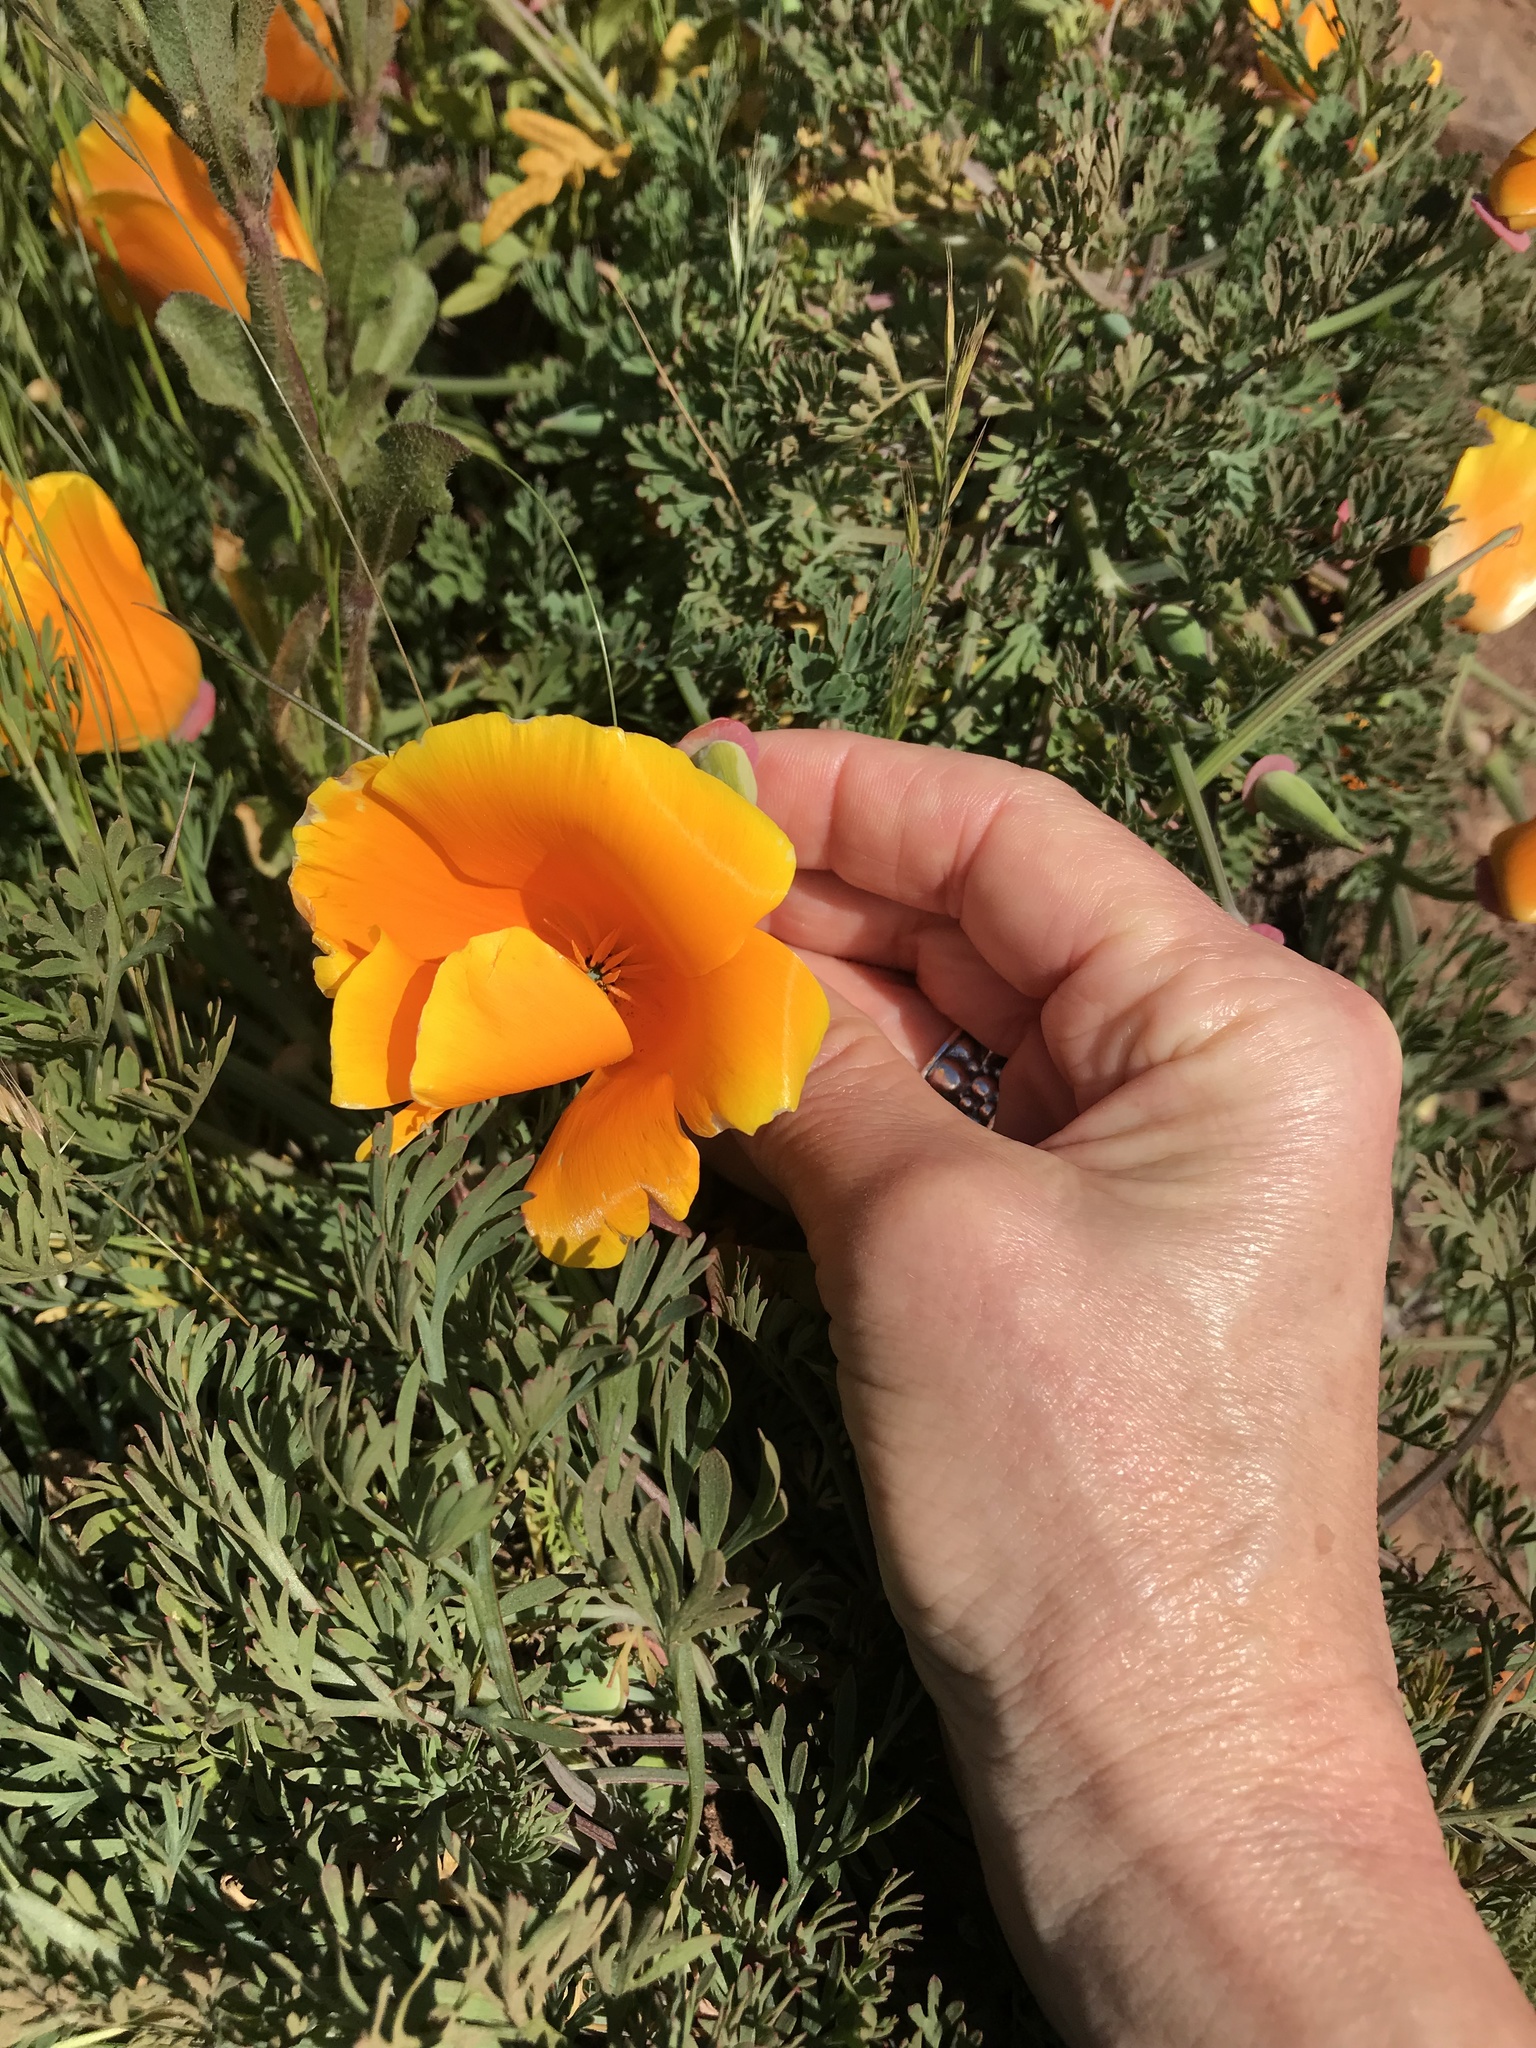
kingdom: Plantae
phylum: Tracheophyta
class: Magnoliopsida
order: Ranunculales
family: Papaveraceae
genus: Eschscholzia
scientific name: Eschscholzia californica
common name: California poppy
